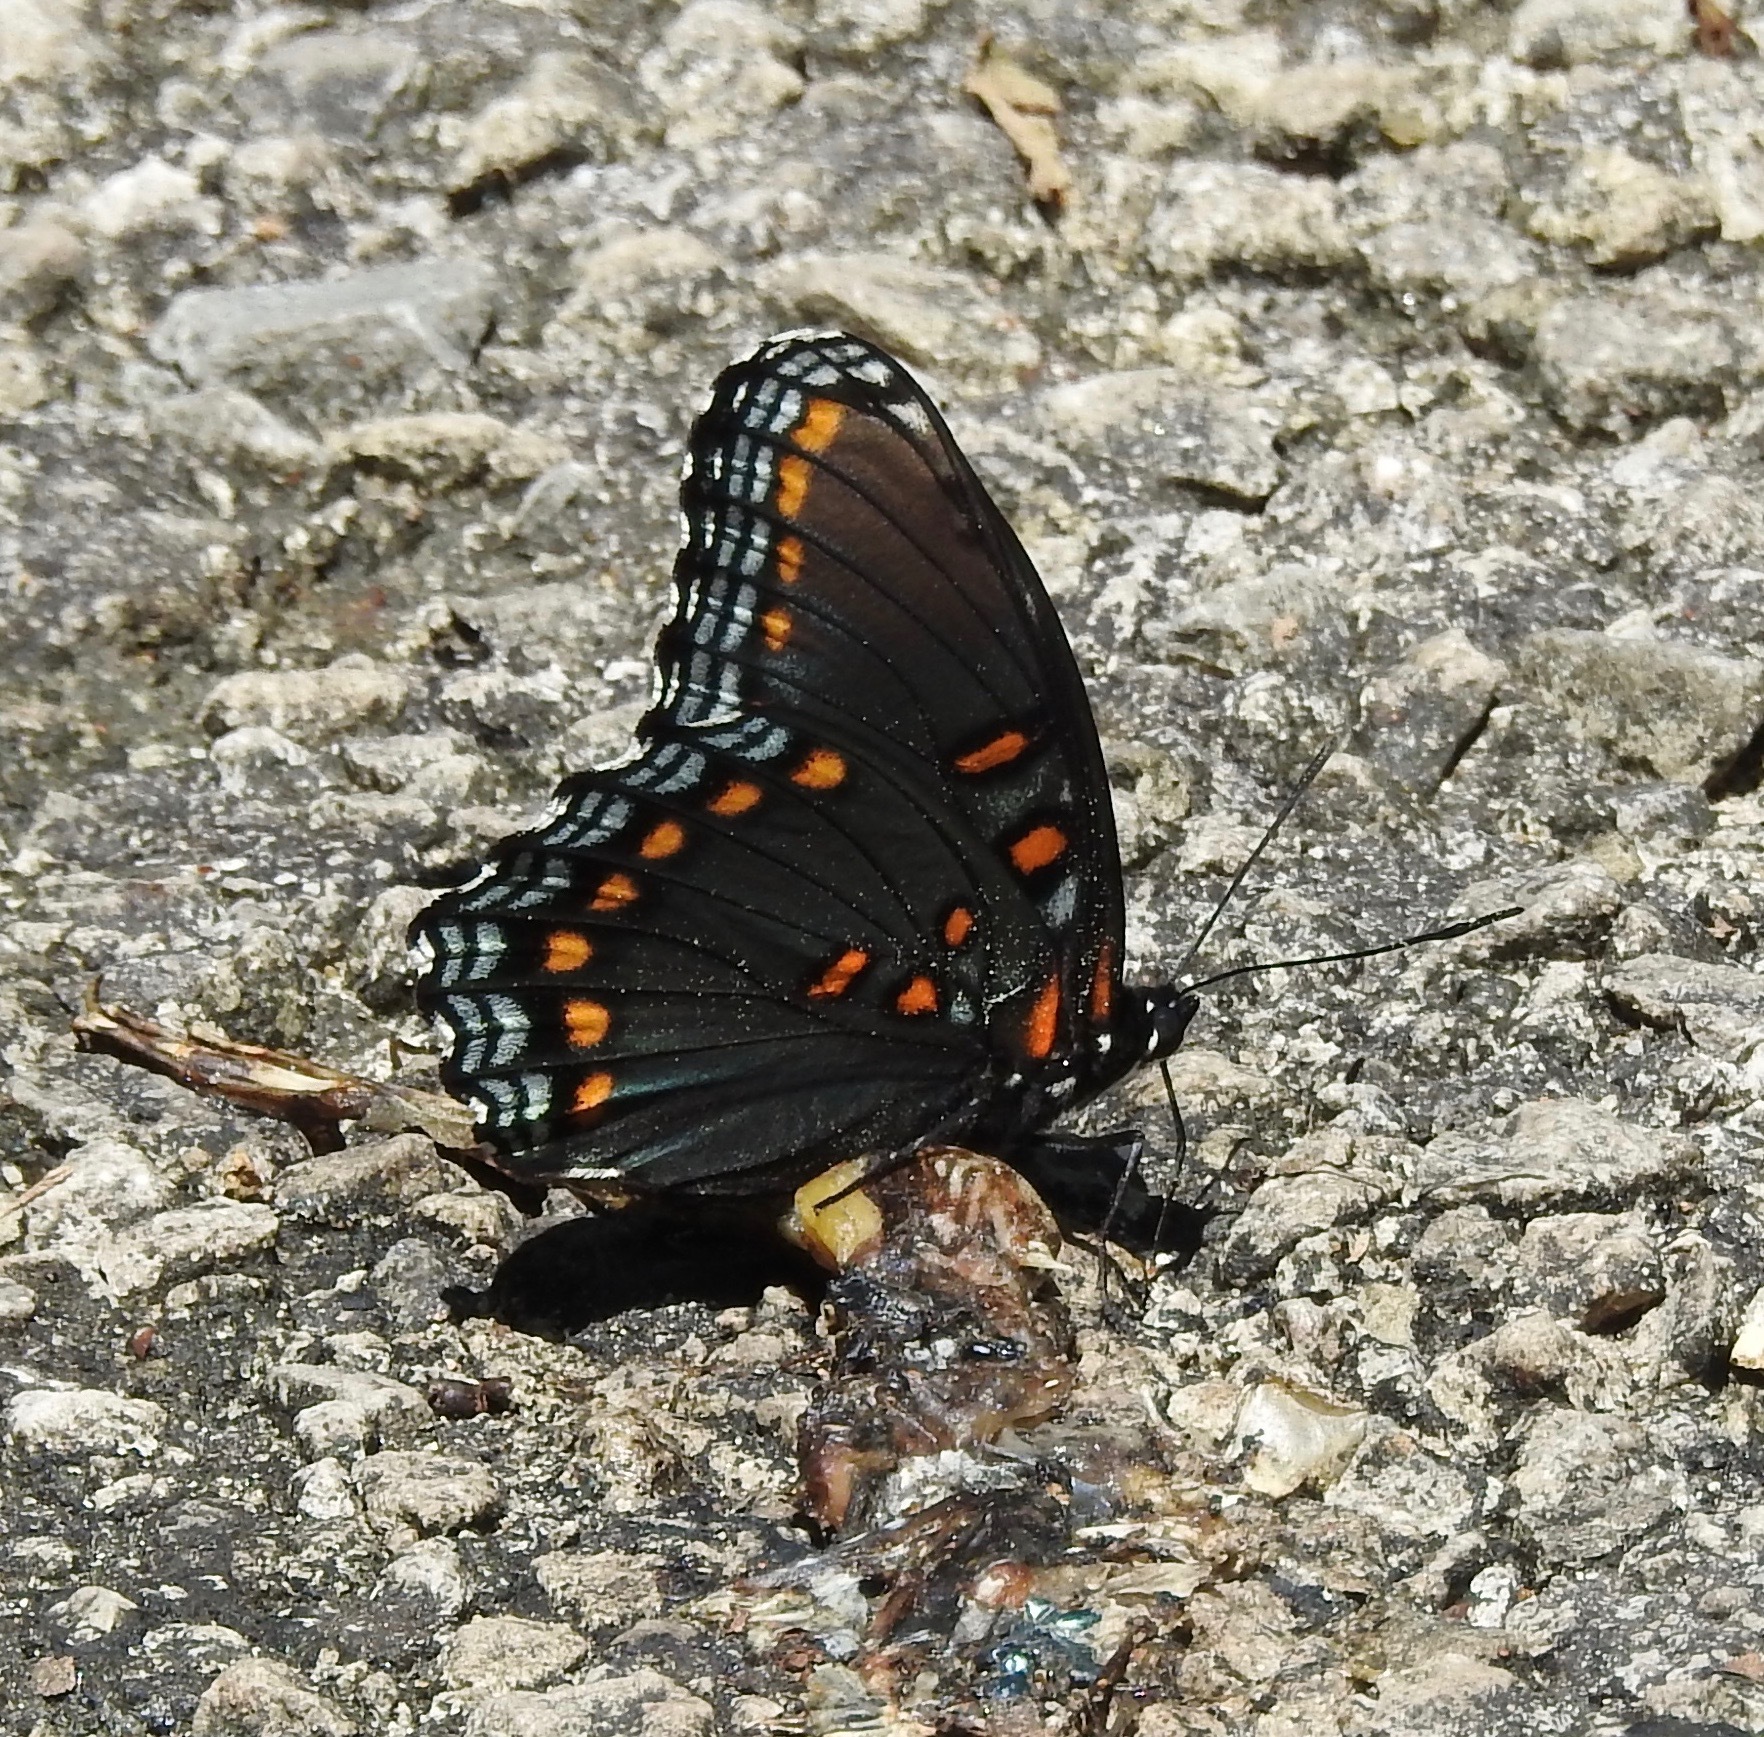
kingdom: Animalia
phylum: Arthropoda
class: Insecta
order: Lepidoptera
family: Nymphalidae
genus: Limenitis
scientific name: Limenitis astyanax
